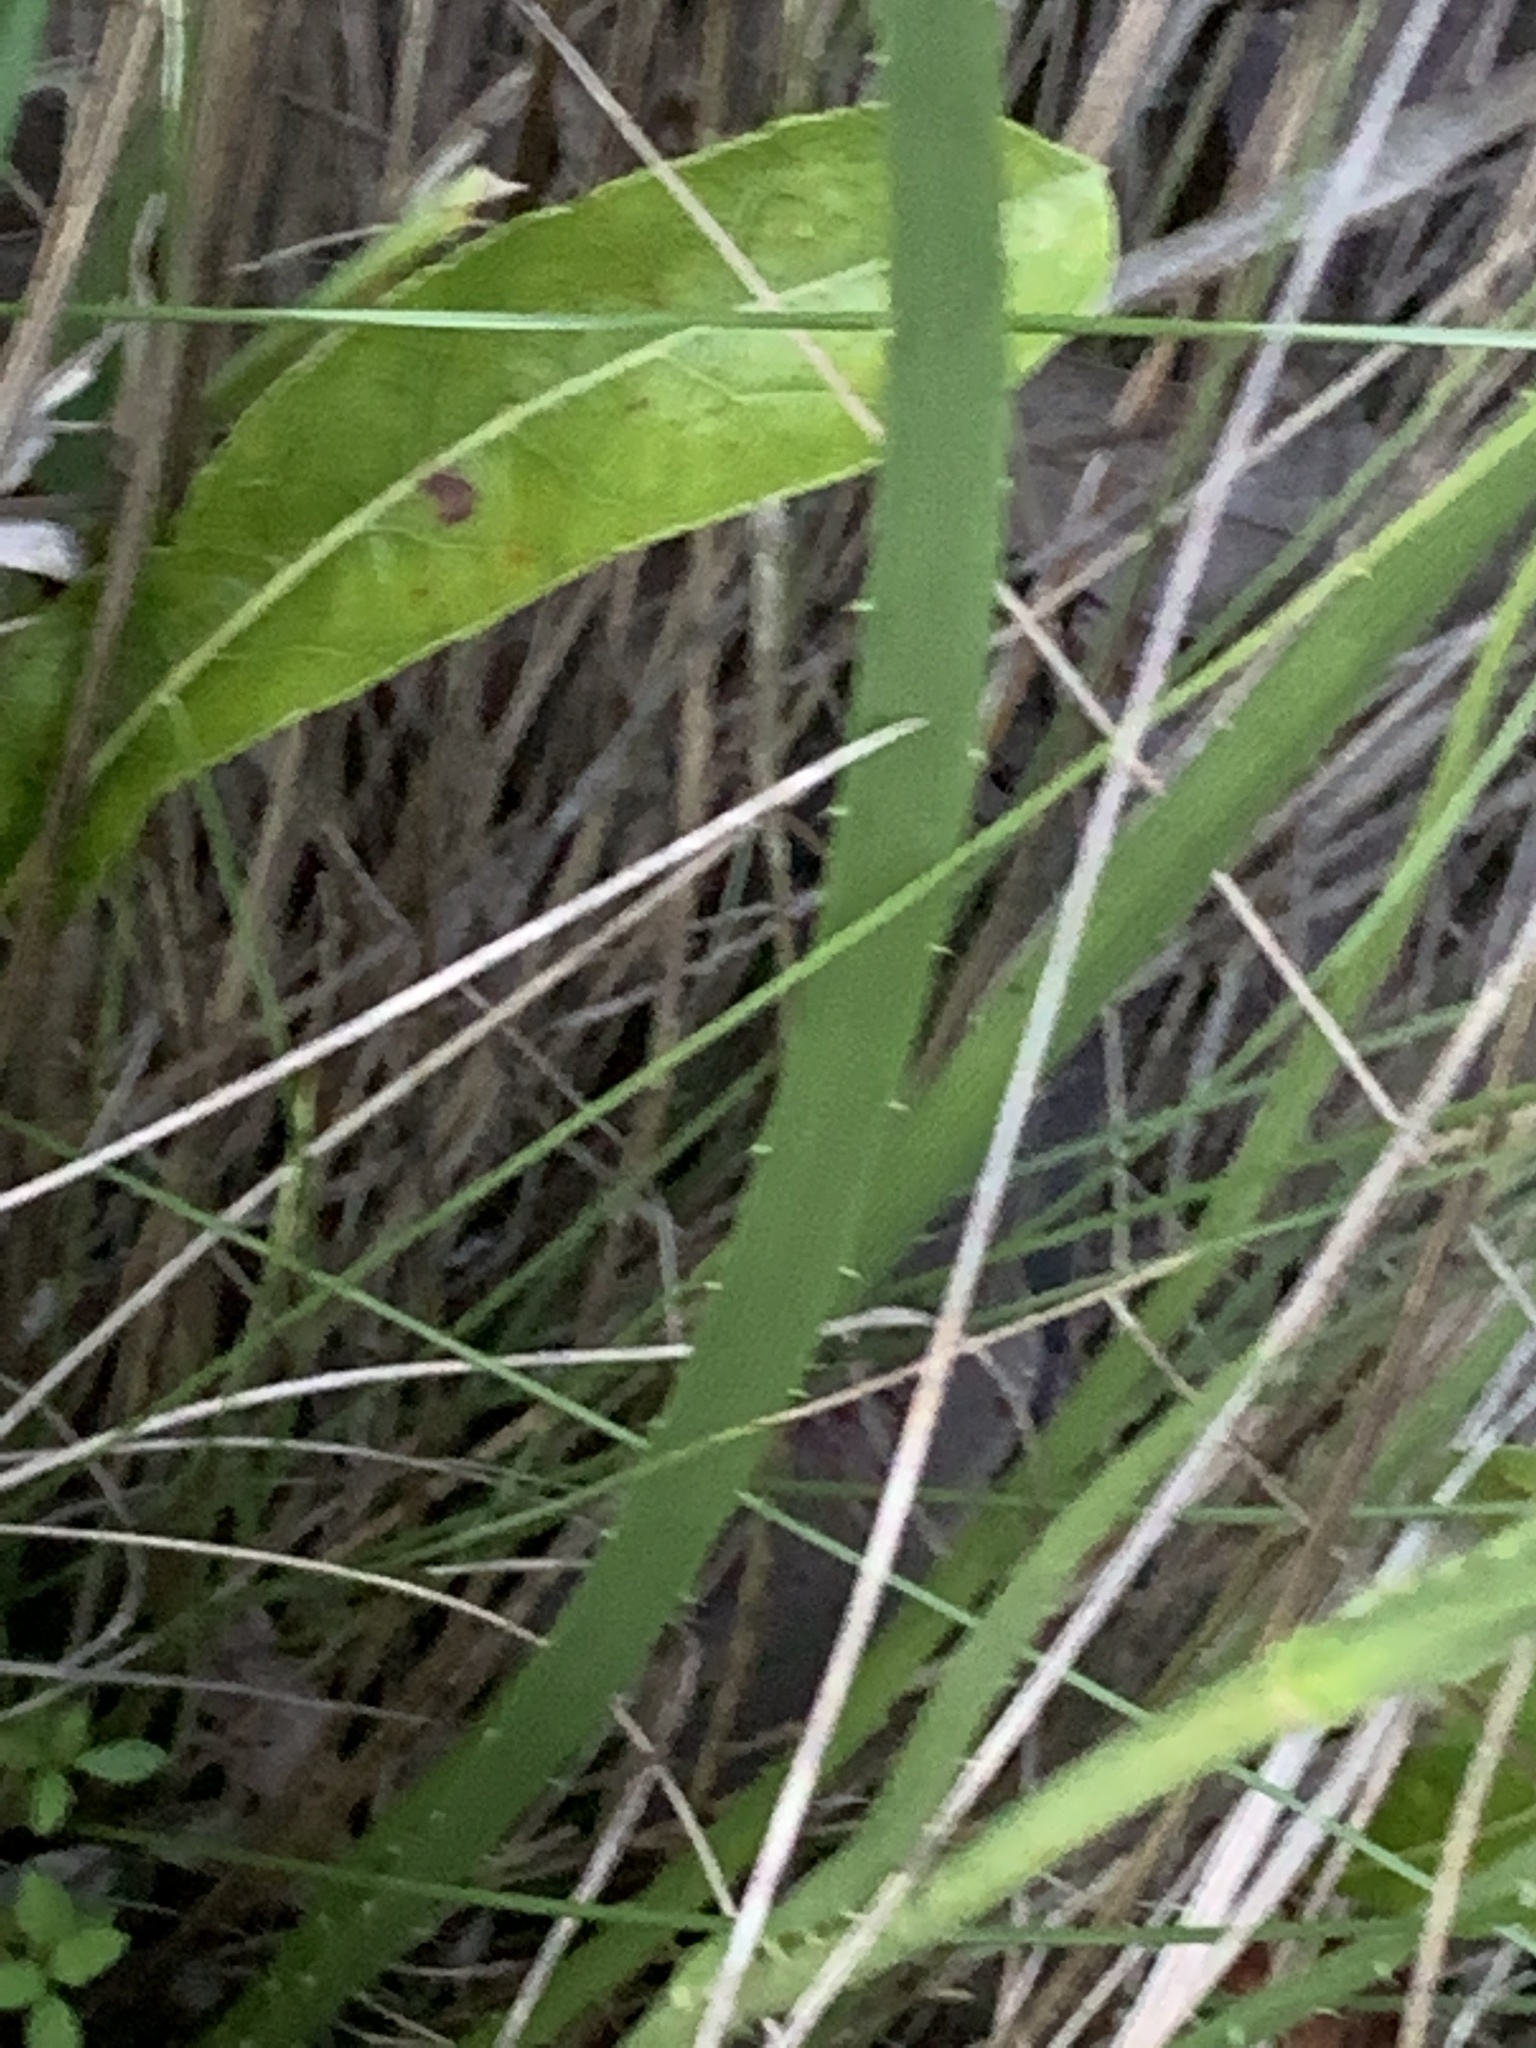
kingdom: Plantae
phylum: Tracheophyta
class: Magnoliopsida
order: Apiales
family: Apiaceae
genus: Eryngium
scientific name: Eryngium yuccifolium
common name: Button eryngo
